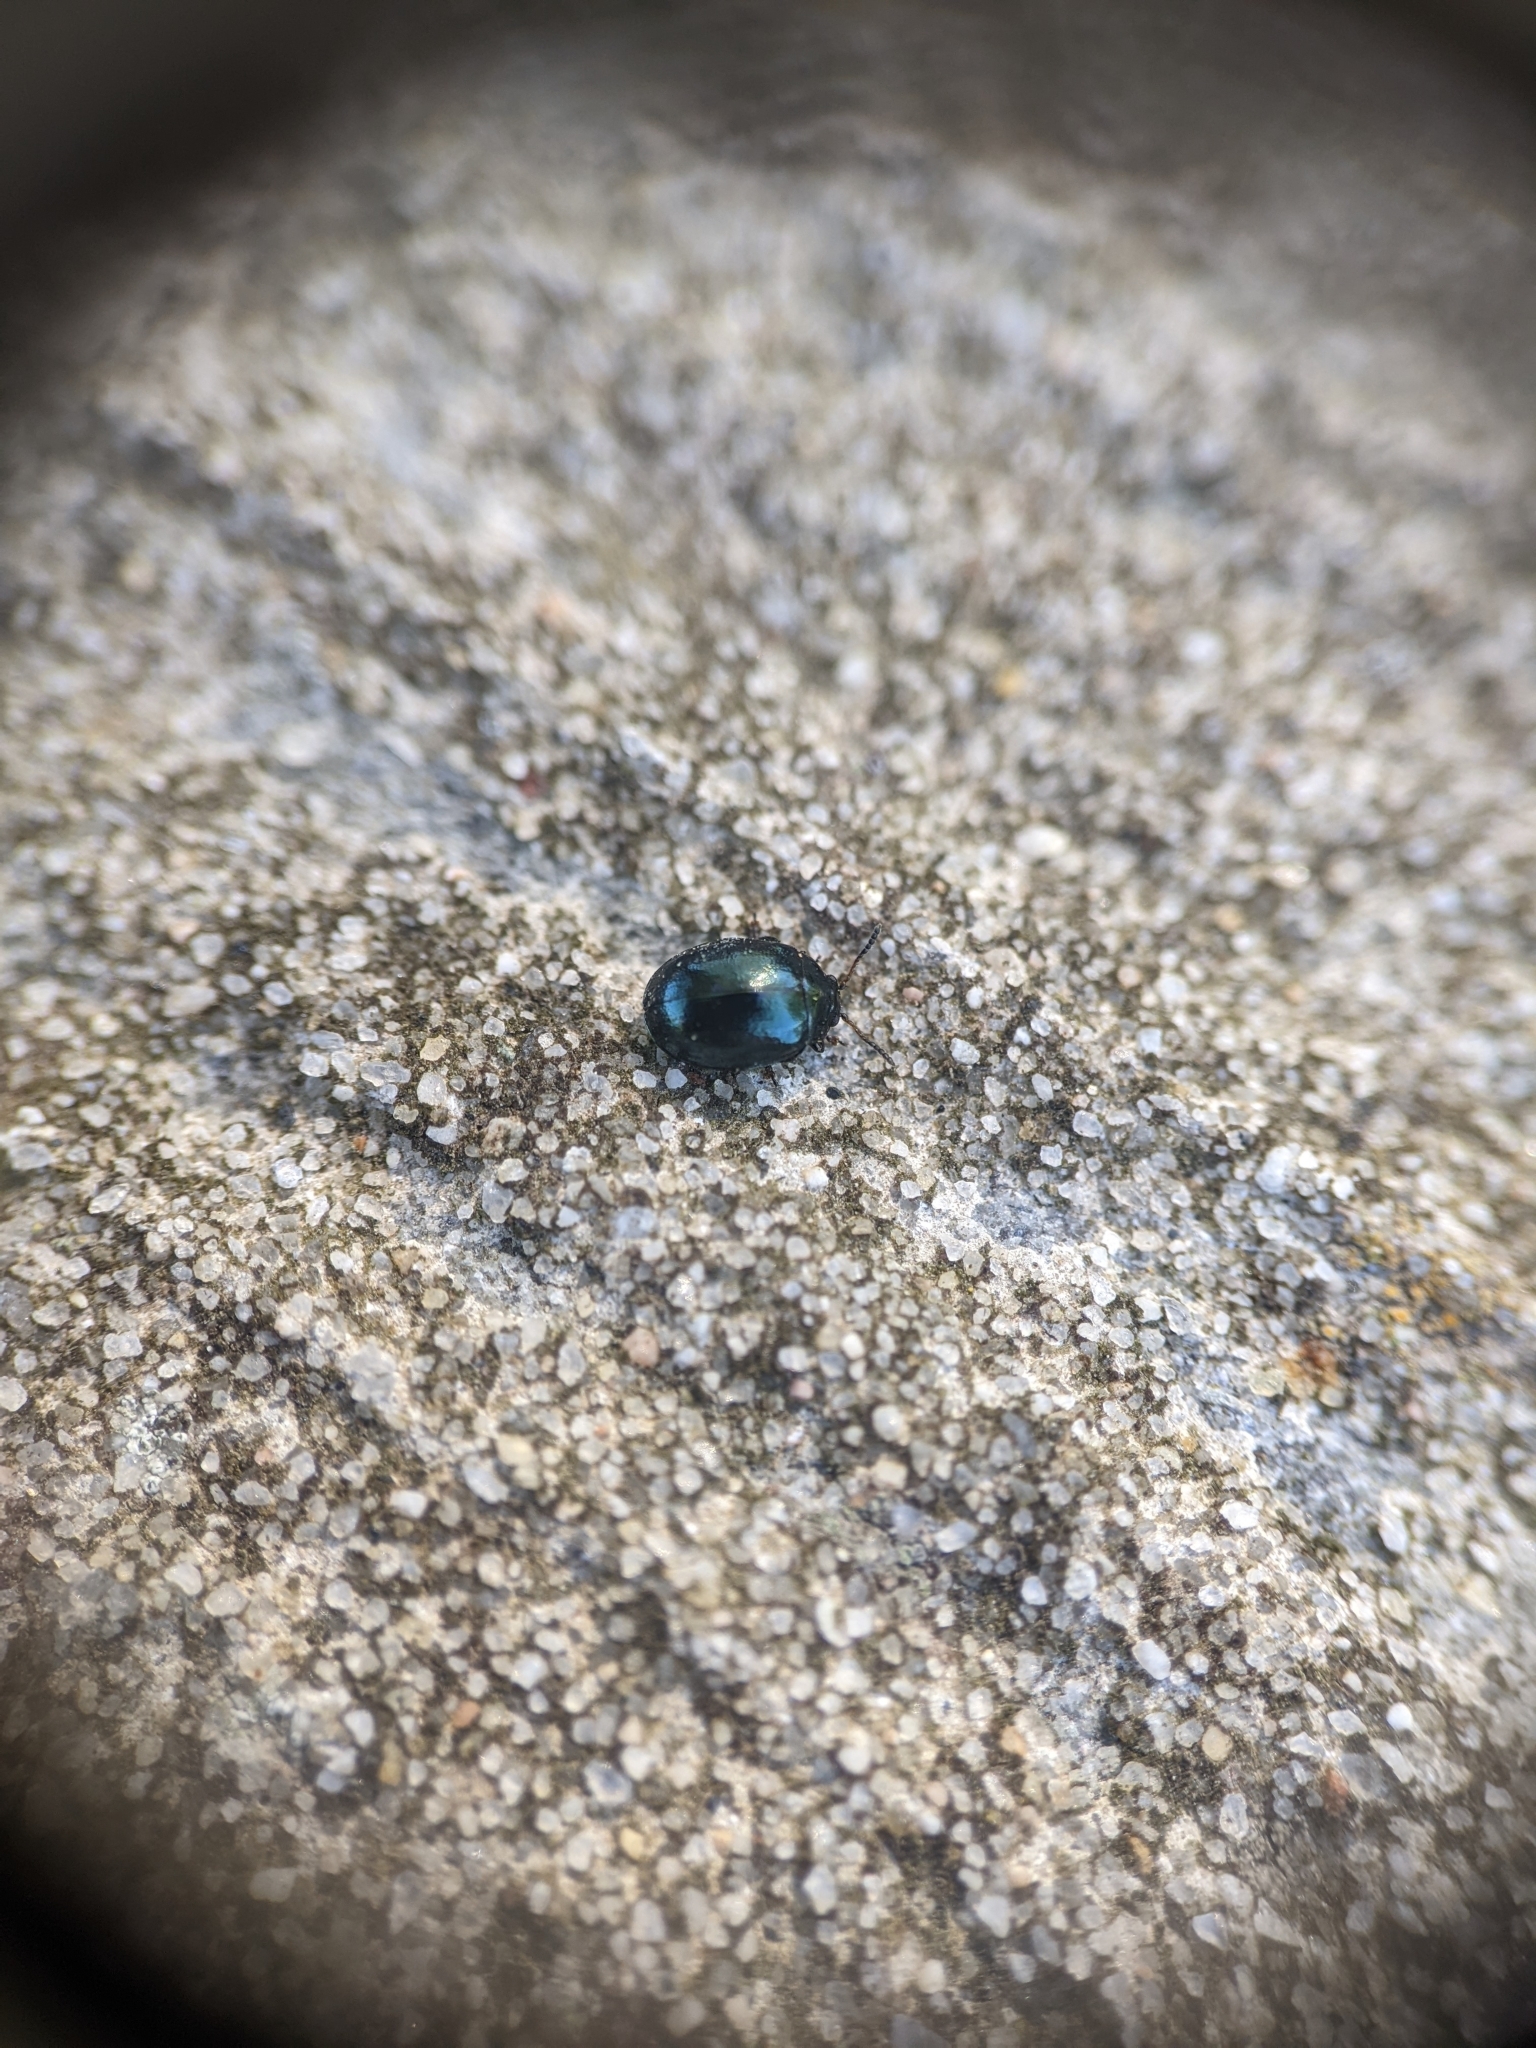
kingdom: Animalia
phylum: Arthropoda
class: Insecta
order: Coleoptera
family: Chrysomelidae
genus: Plagiodera
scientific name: Plagiodera versicolora
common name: Imported willow leaf beetle
